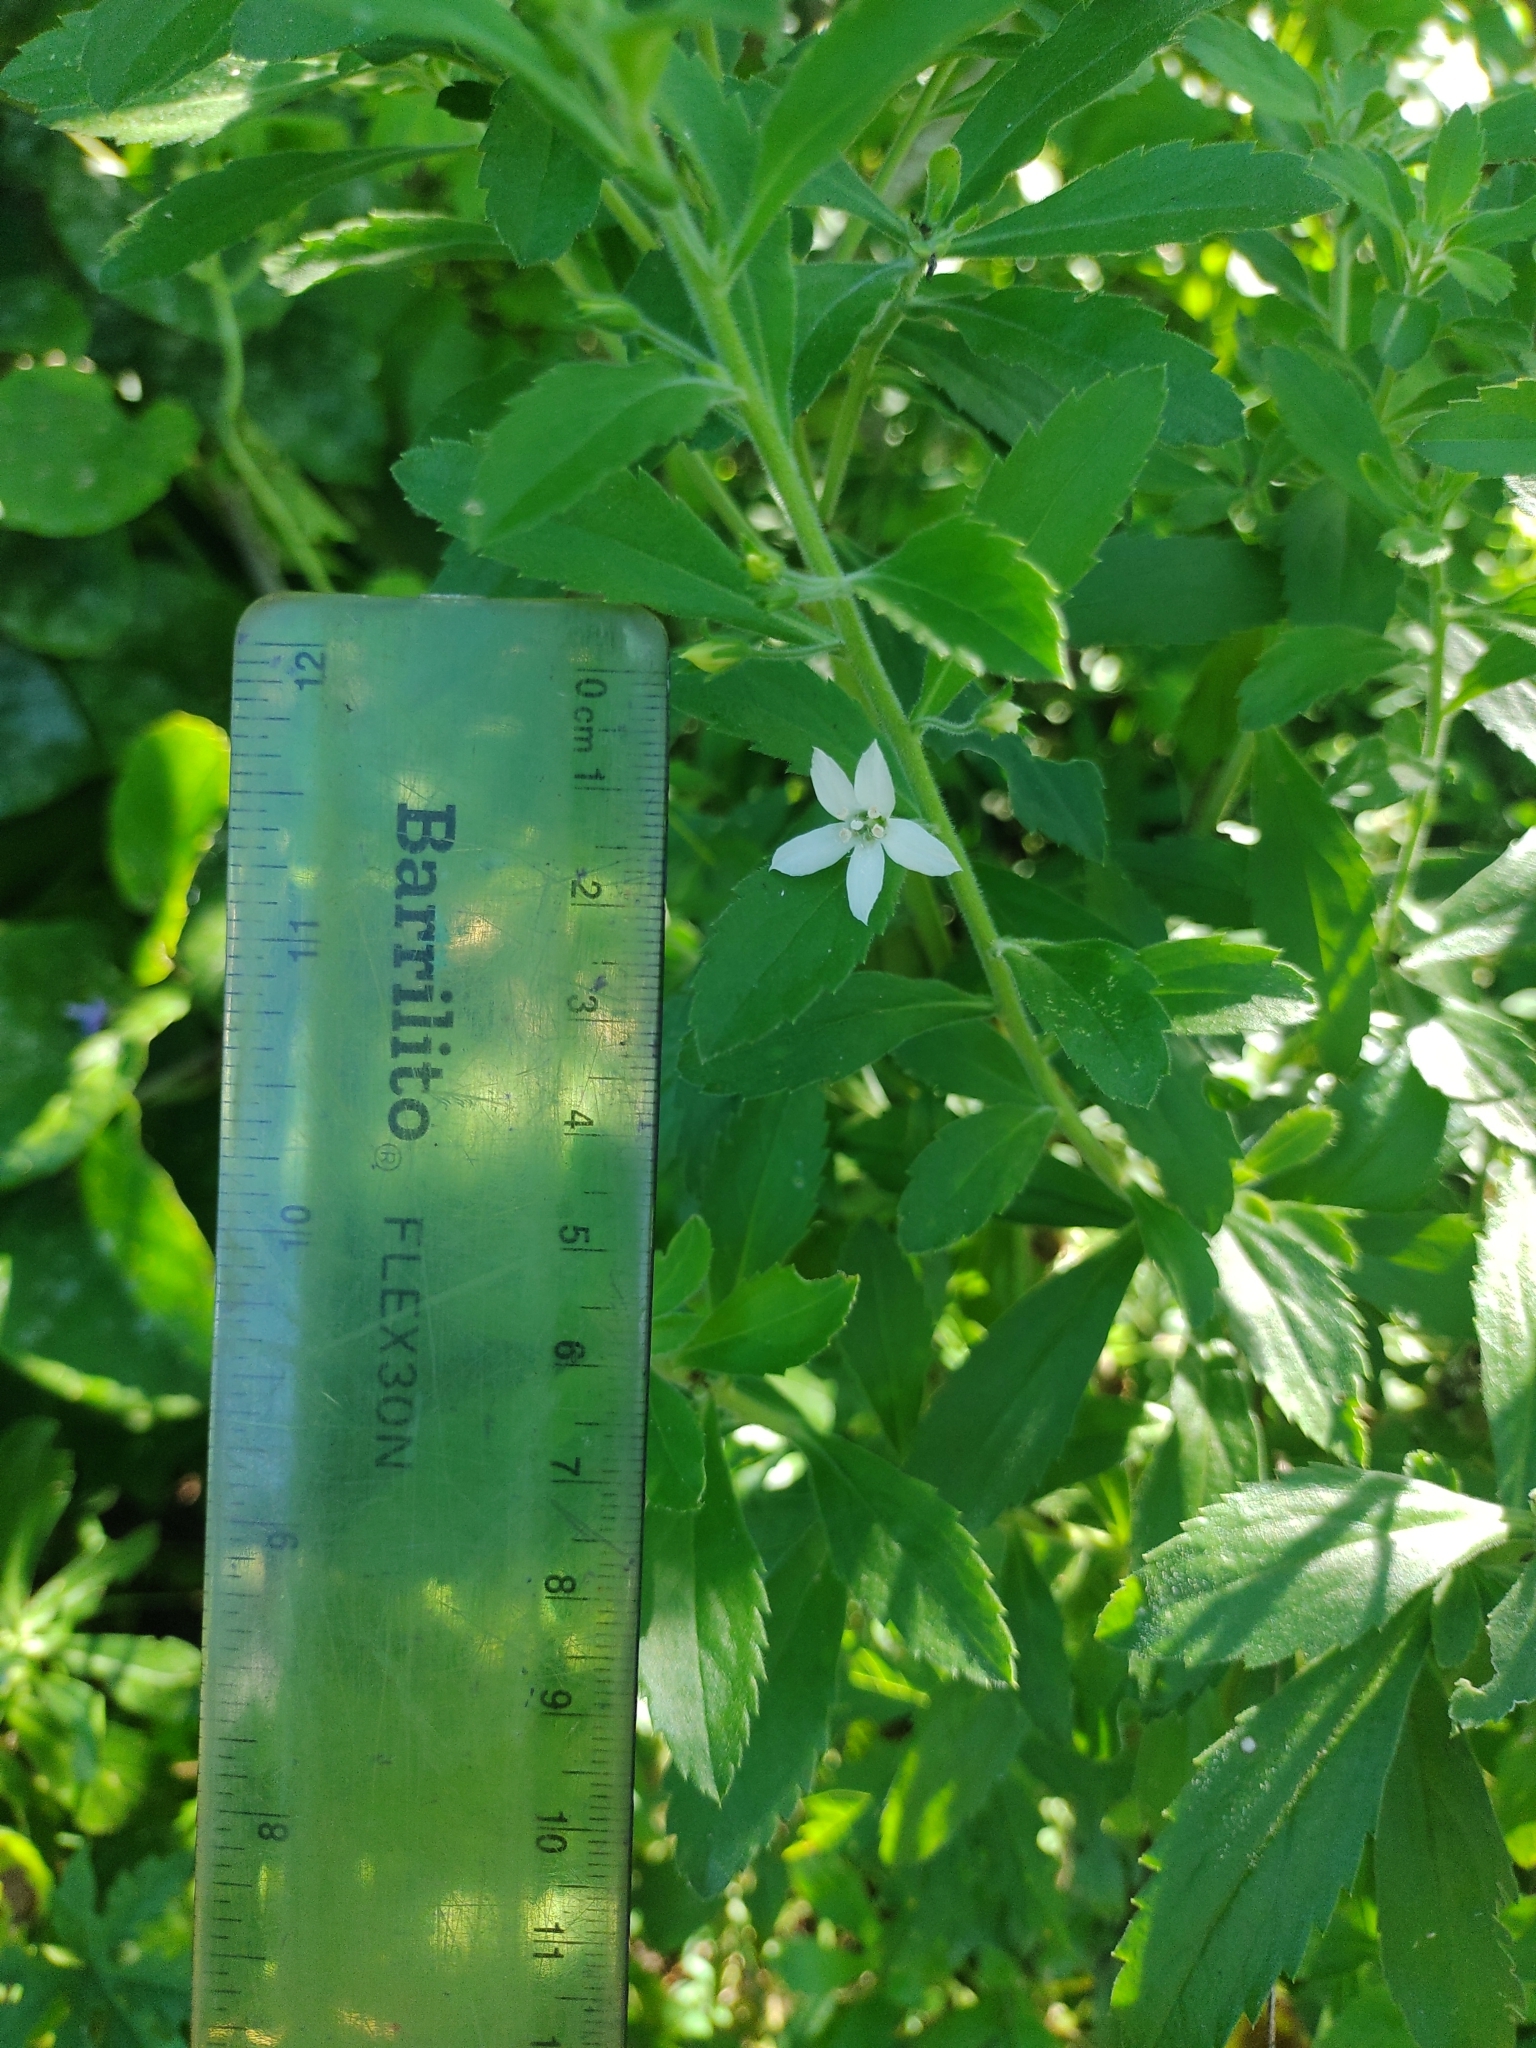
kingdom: Plantae
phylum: Tracheophyta
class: Magnoliopsida
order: Lamiales
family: Scrophulariaceae
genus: Capraria
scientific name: Capraria biflora
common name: Goatweed
